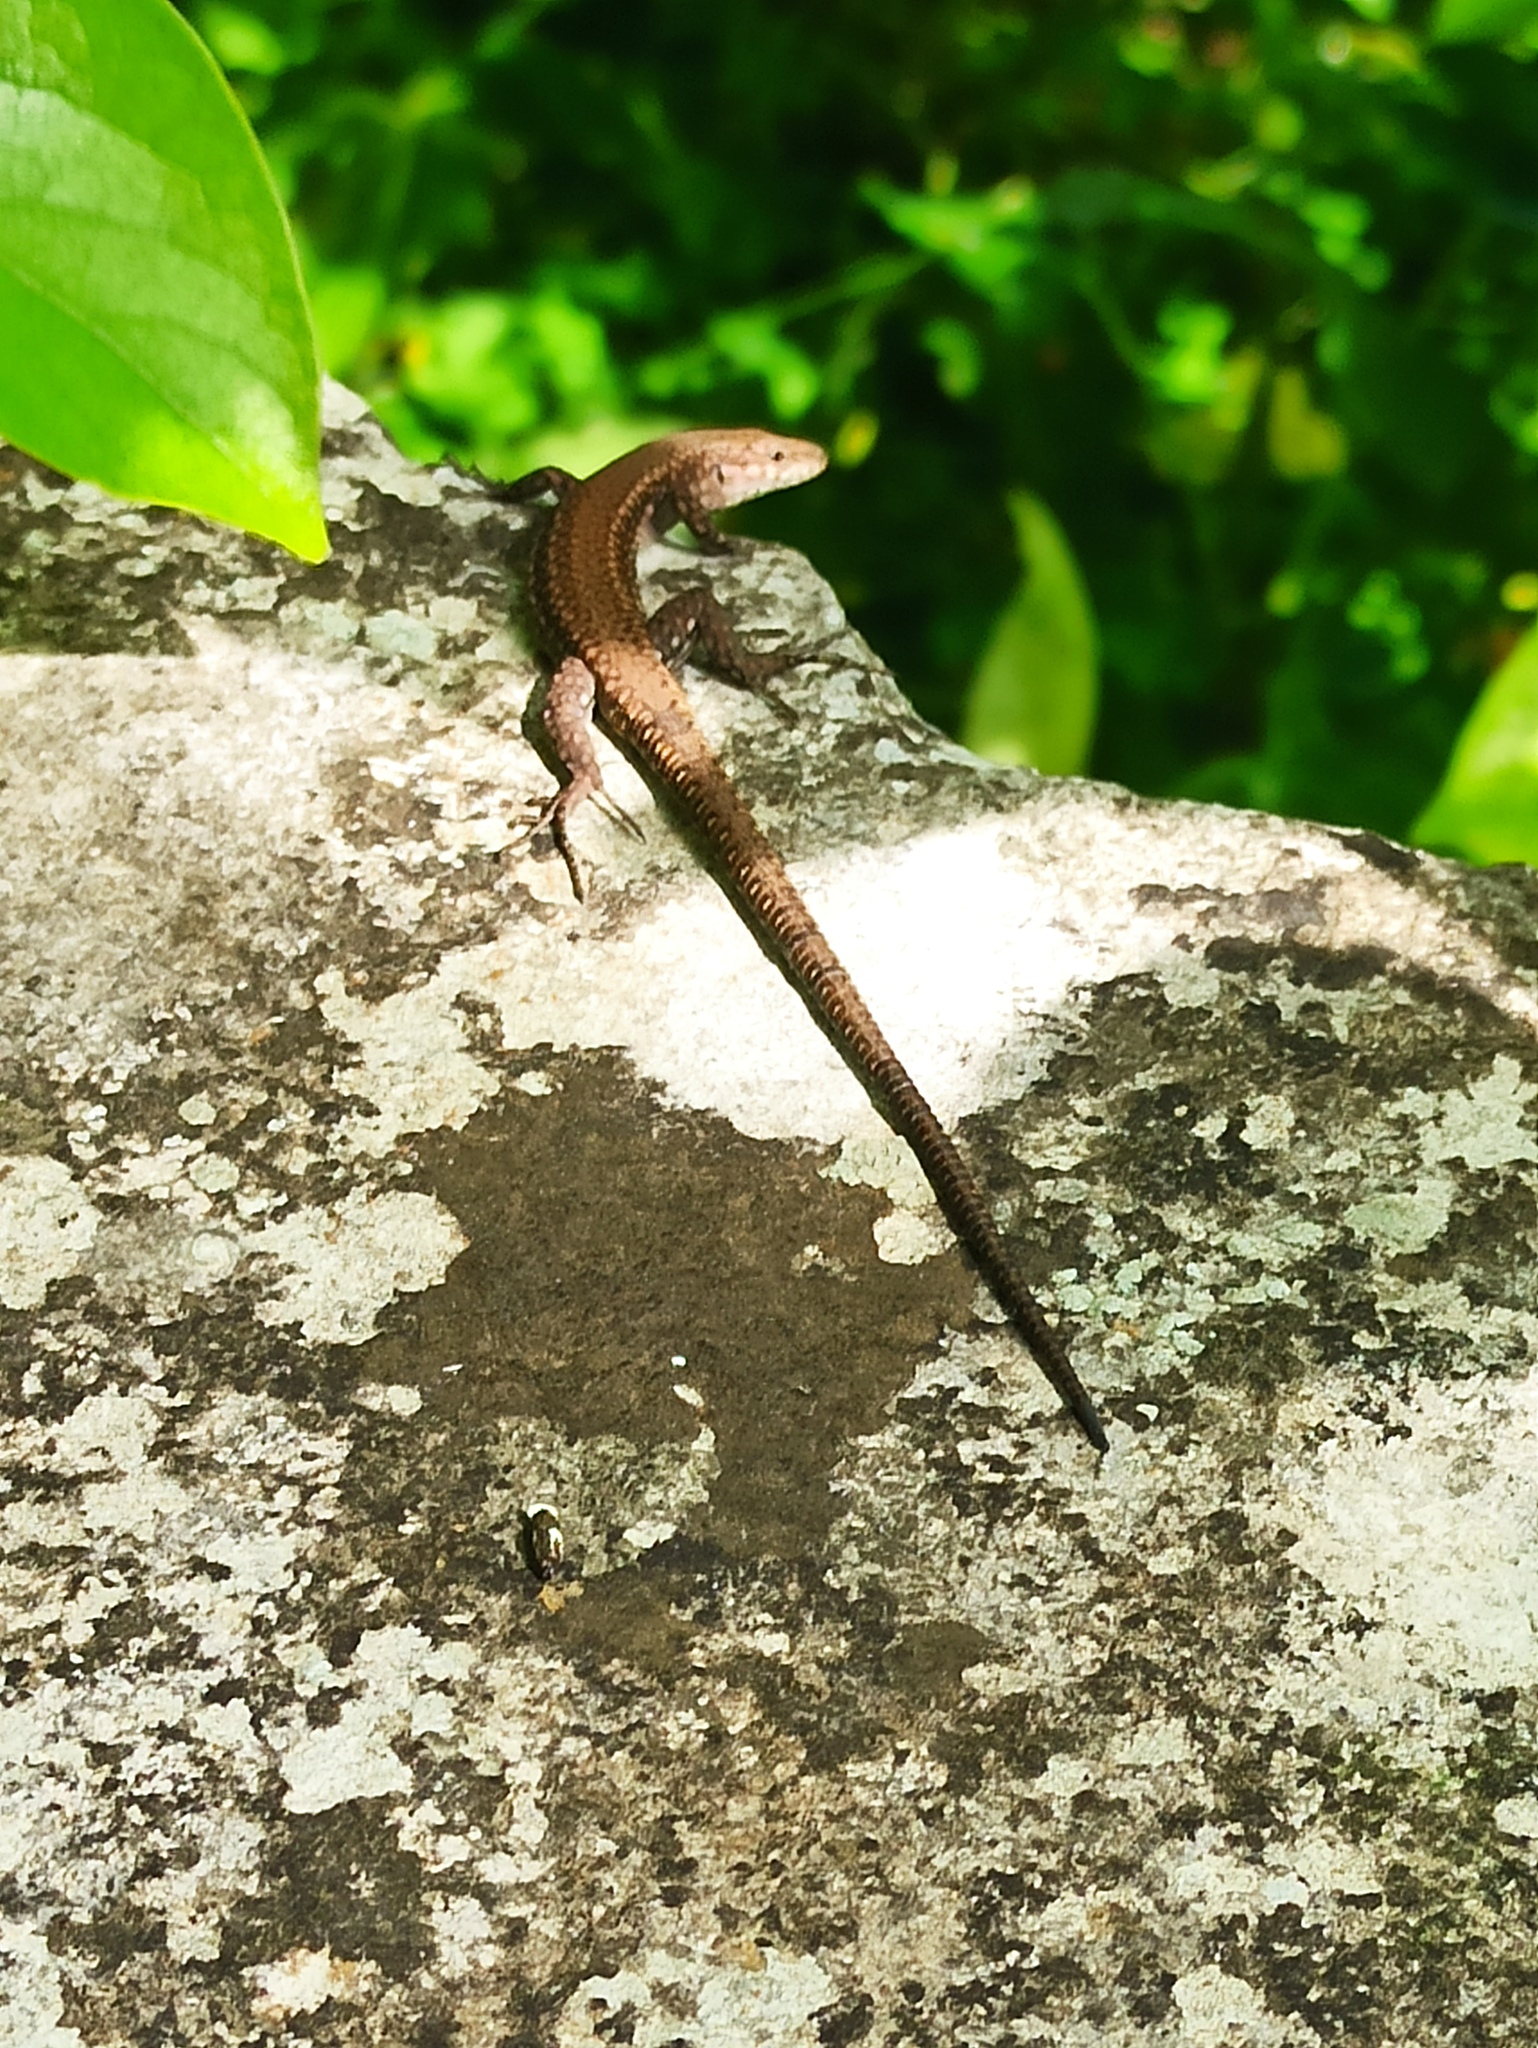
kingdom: Animalia
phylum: Chordata
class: Squamata
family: Lacertidae
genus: Podarcis
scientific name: Podarcis virescens
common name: Geniez’s wall lizard
